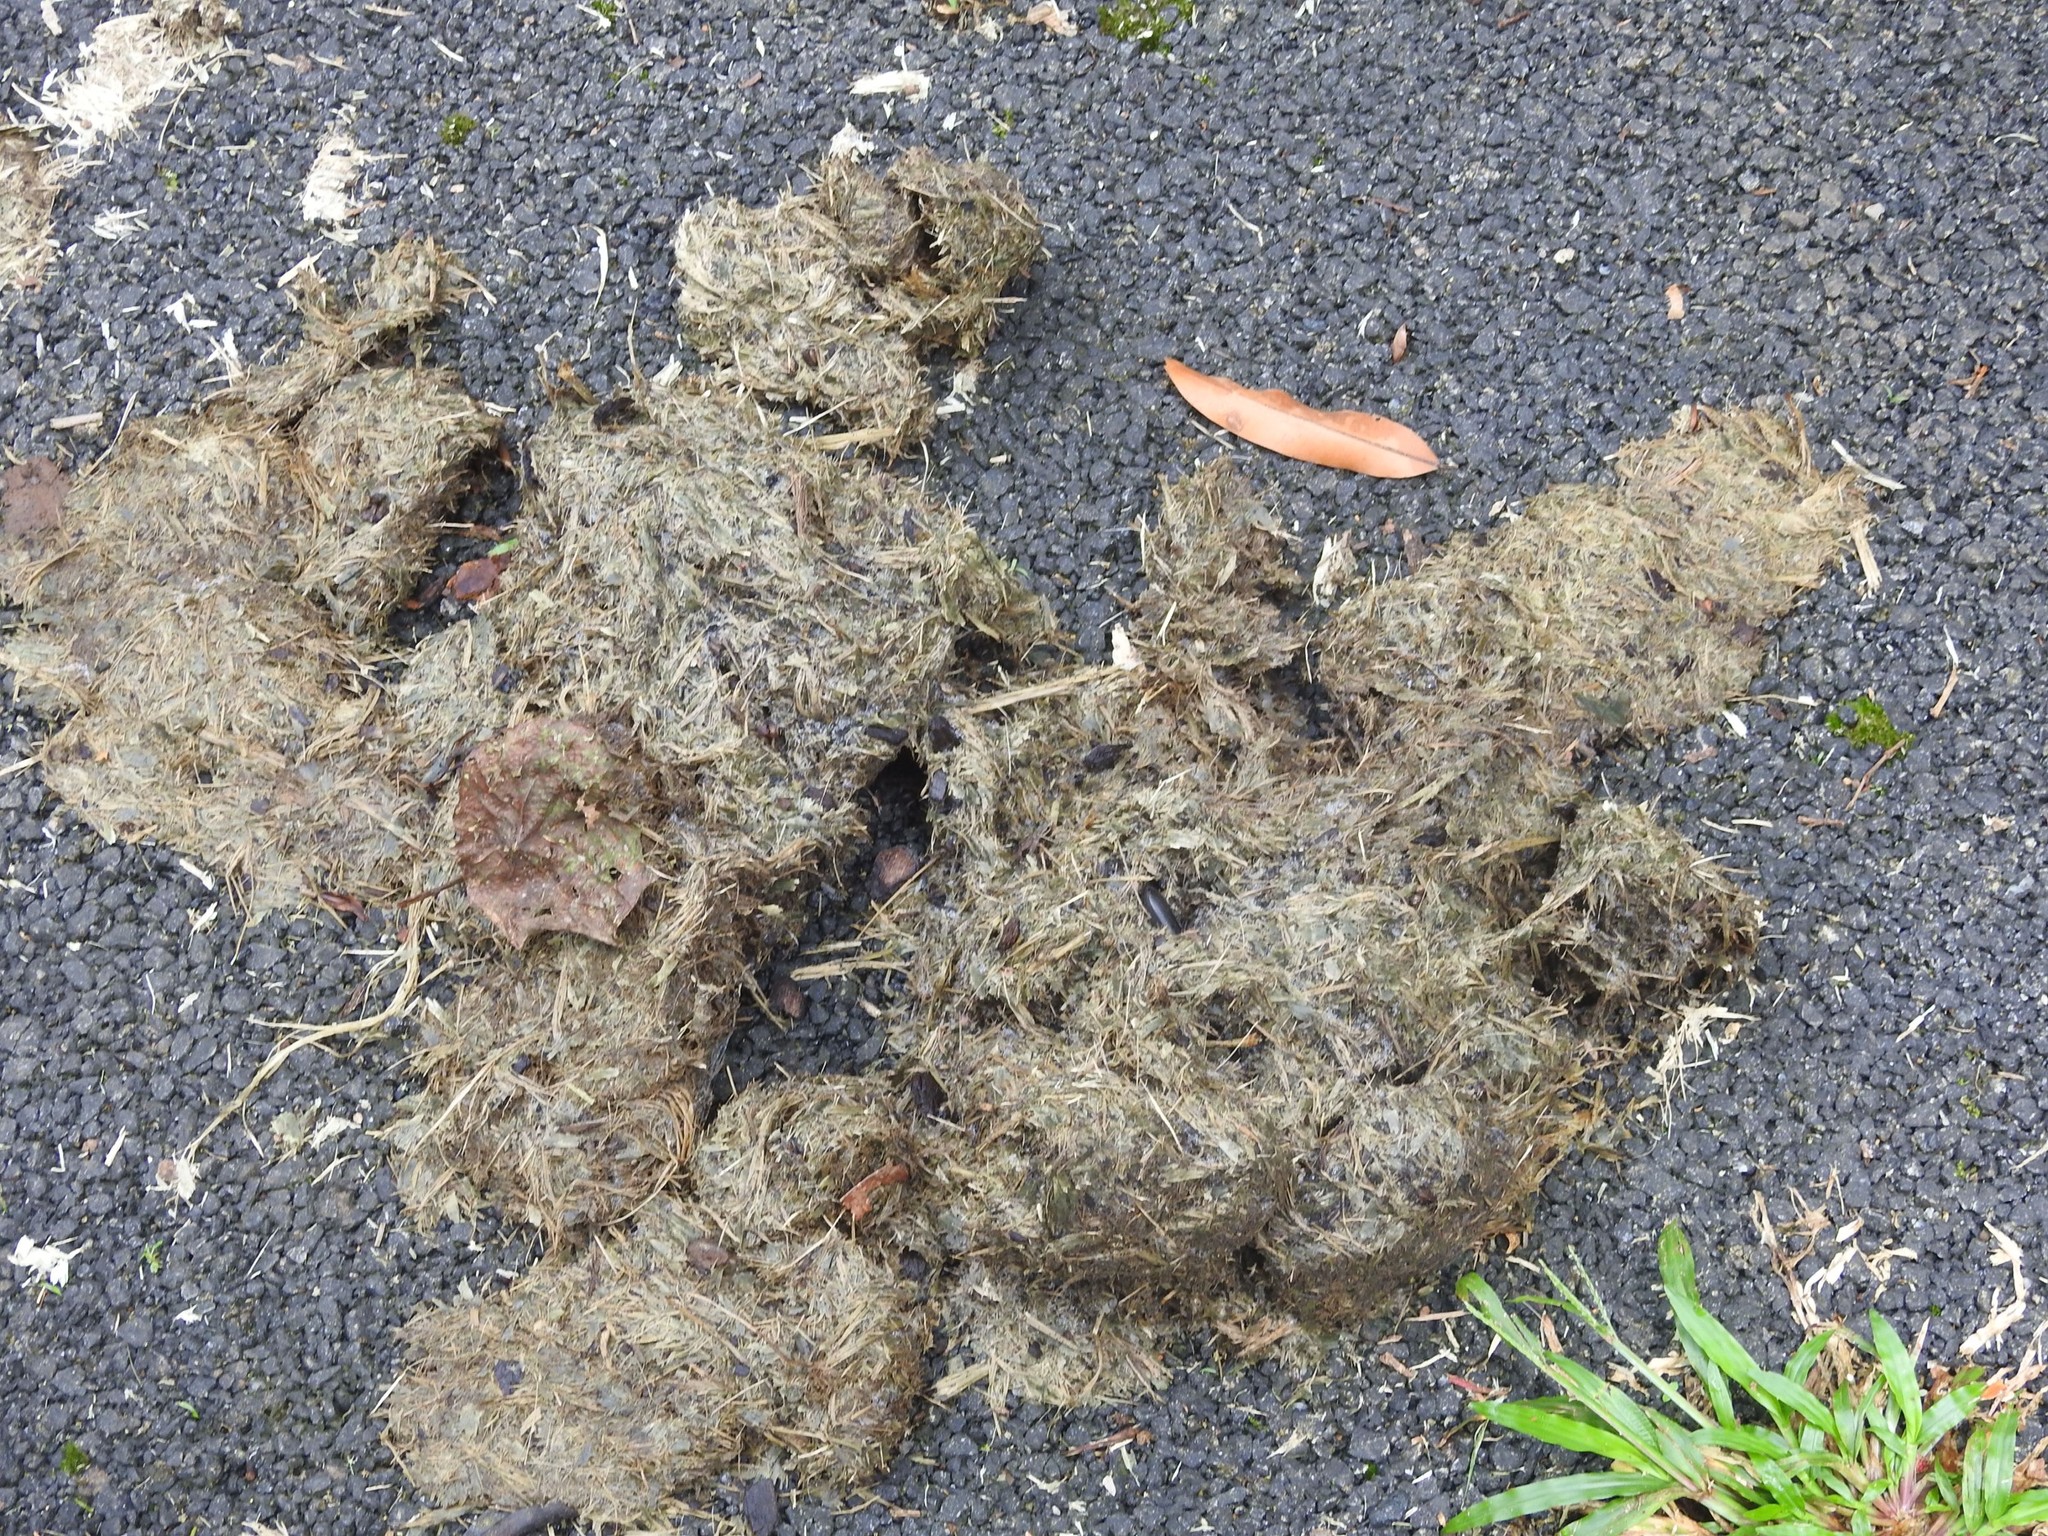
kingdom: Animalia
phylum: Chordata
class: Mammalia
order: Proboscidea
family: Elephantidae
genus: Elephas
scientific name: Elephas maximus
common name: Asian elephant
